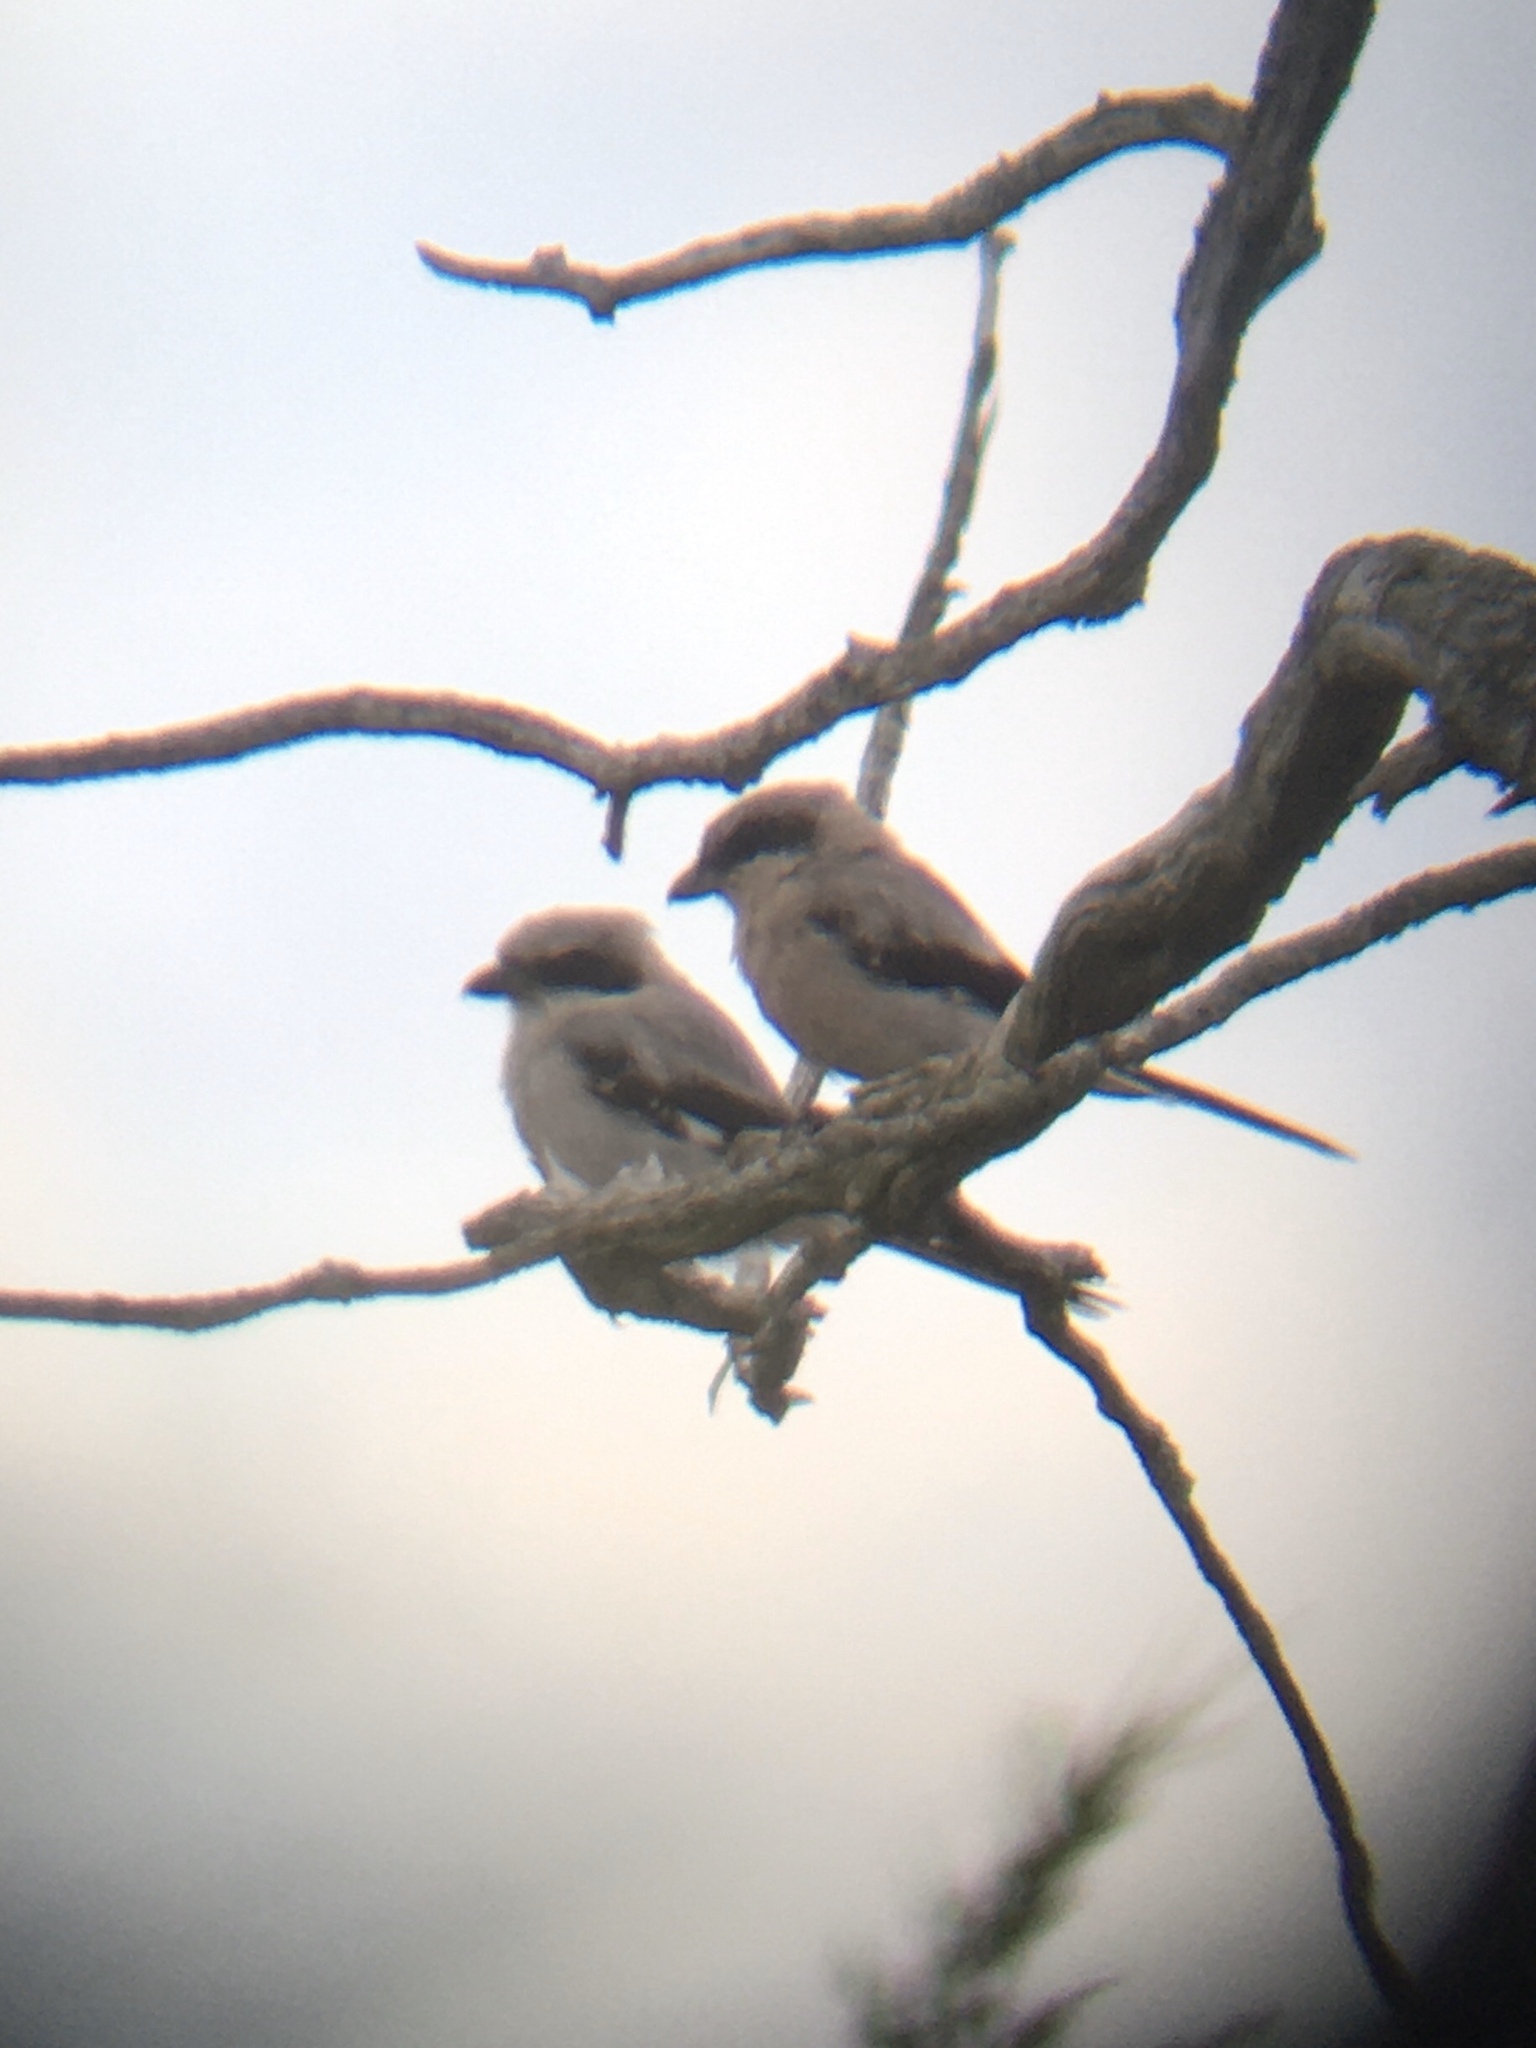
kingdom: Animalia
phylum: Chordata
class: Aves
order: Passeriformes
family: Laniidae
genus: Lanius
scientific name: Lanius ludovicianus
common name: Loggerhead shrike
